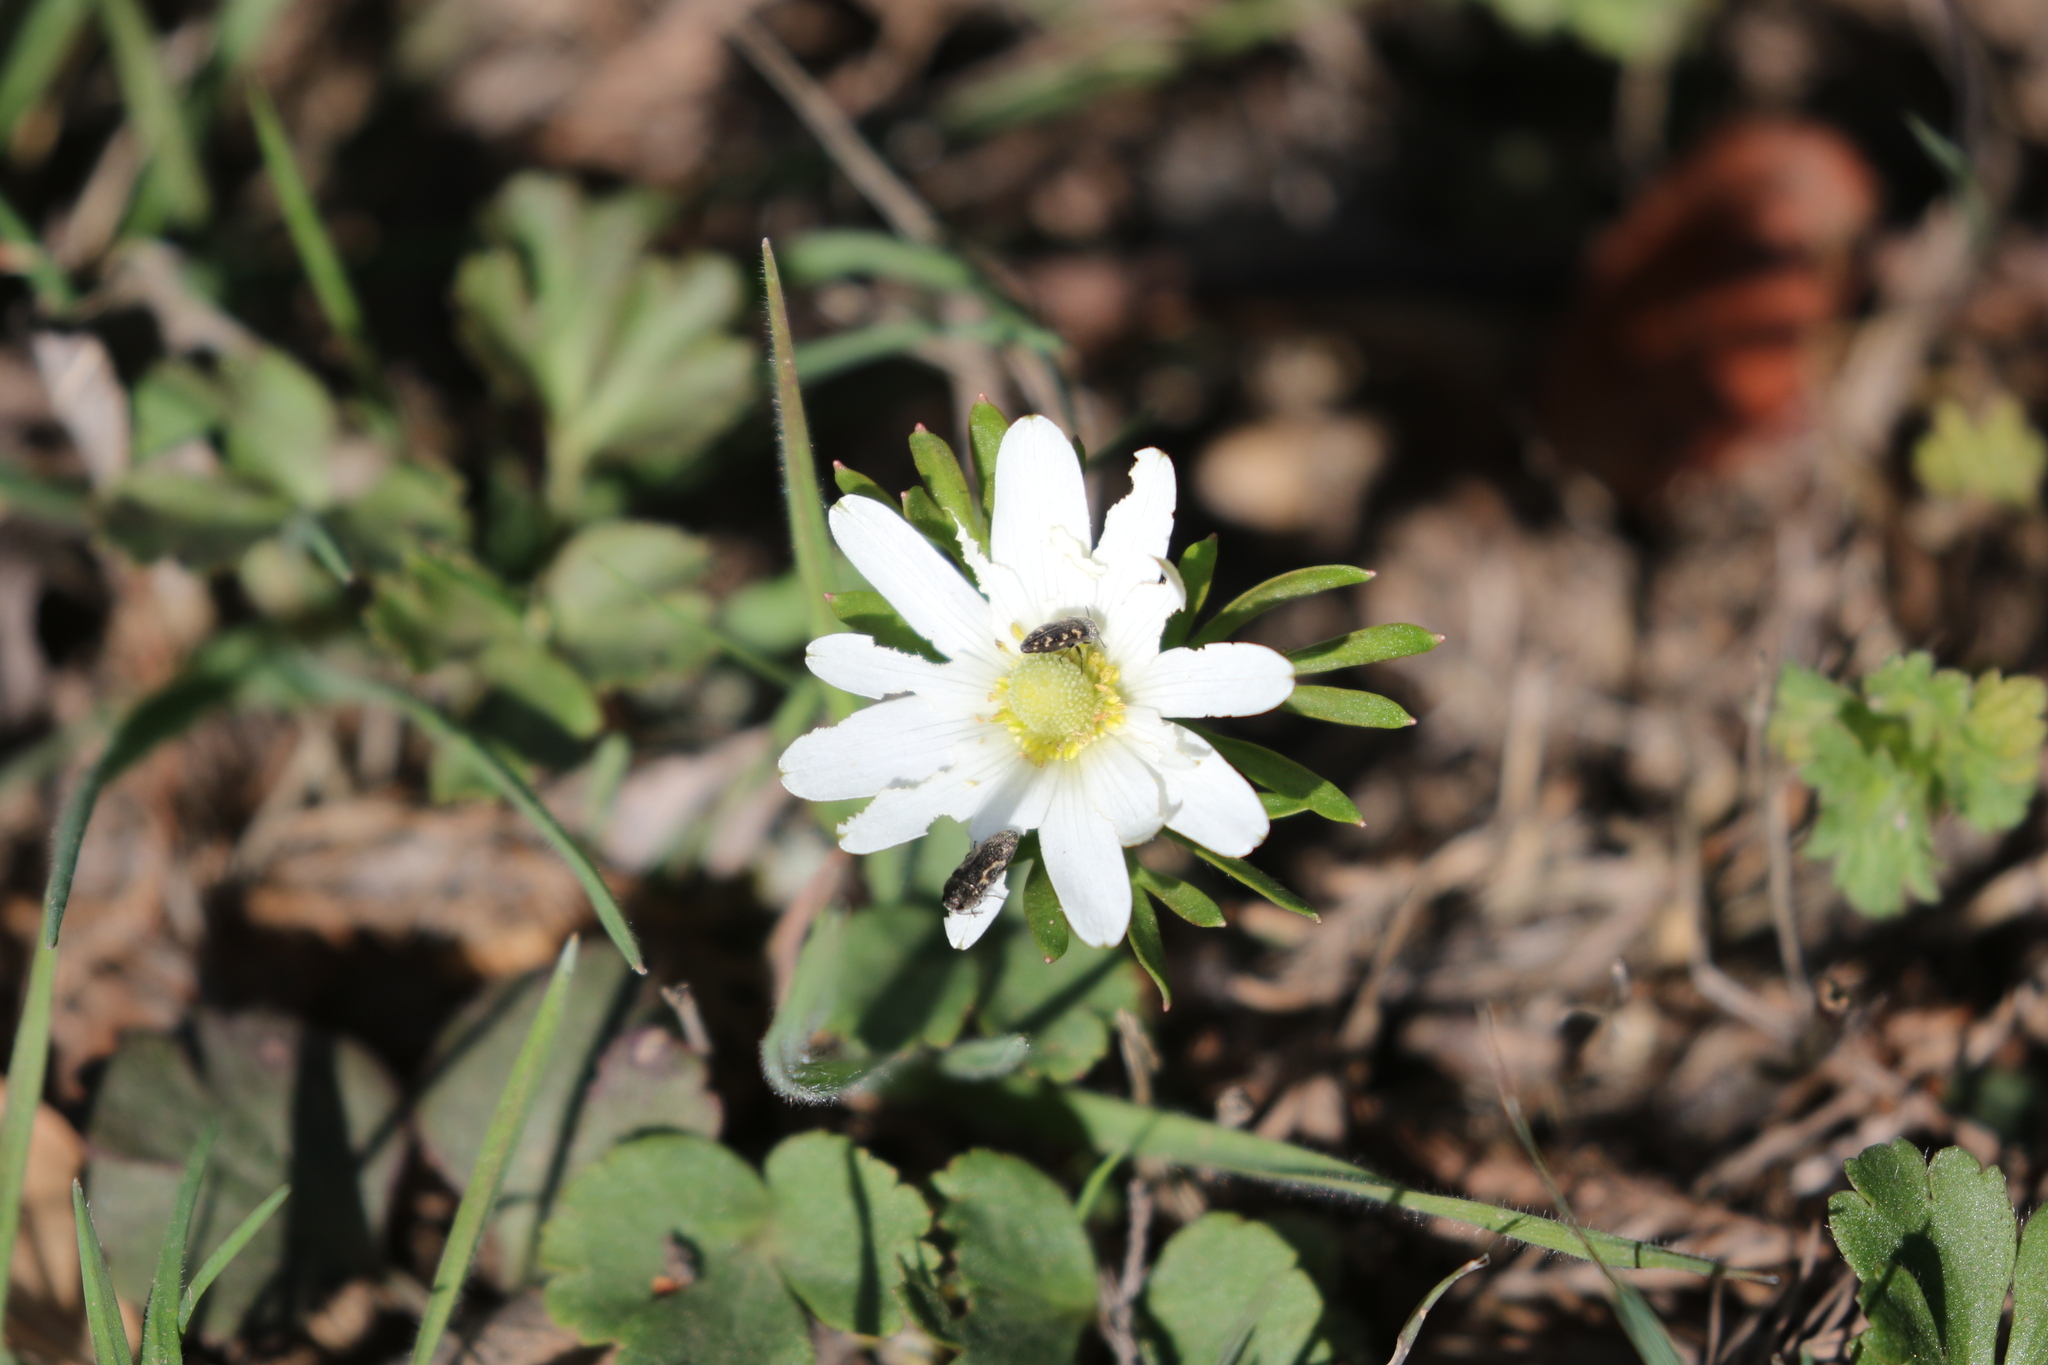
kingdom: Plantae
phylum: Tracheophyta
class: Magnoliopsida
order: Ranunculales
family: Ranunculaceae
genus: Anemone
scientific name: Anemone berlandieri
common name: Ten-petal anemone
